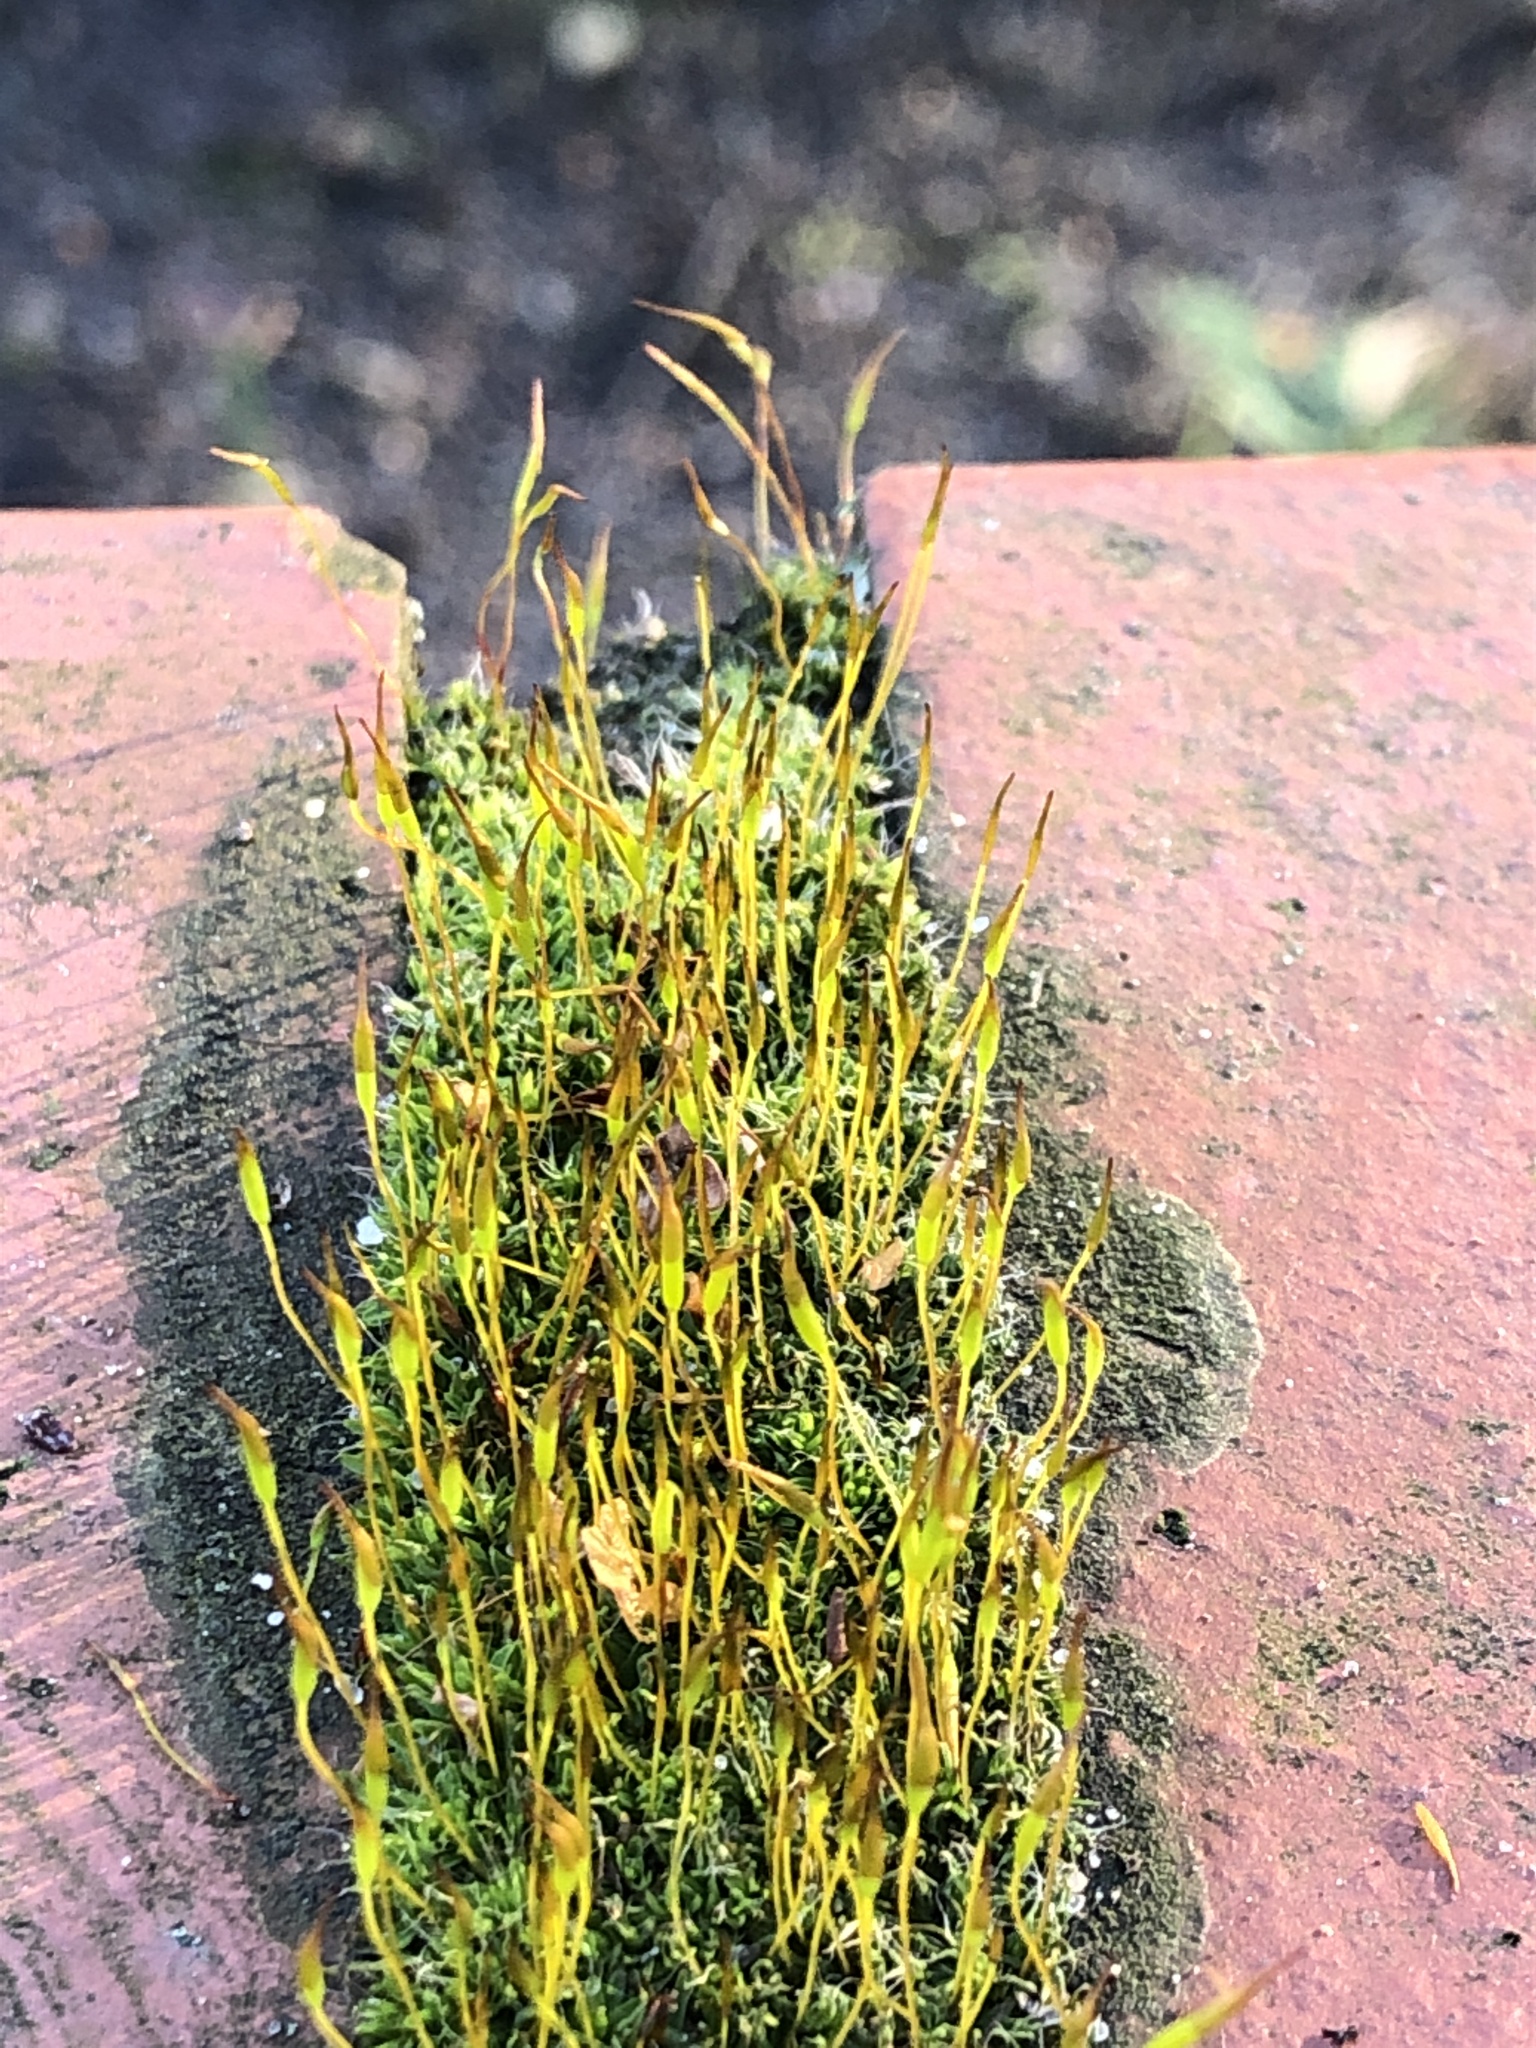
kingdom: Plantae
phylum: Bryophyta
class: Bryopsida
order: Pottiales
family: Pottiaceae
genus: Tortula
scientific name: Tortula muralis
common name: Wall screw-moss
